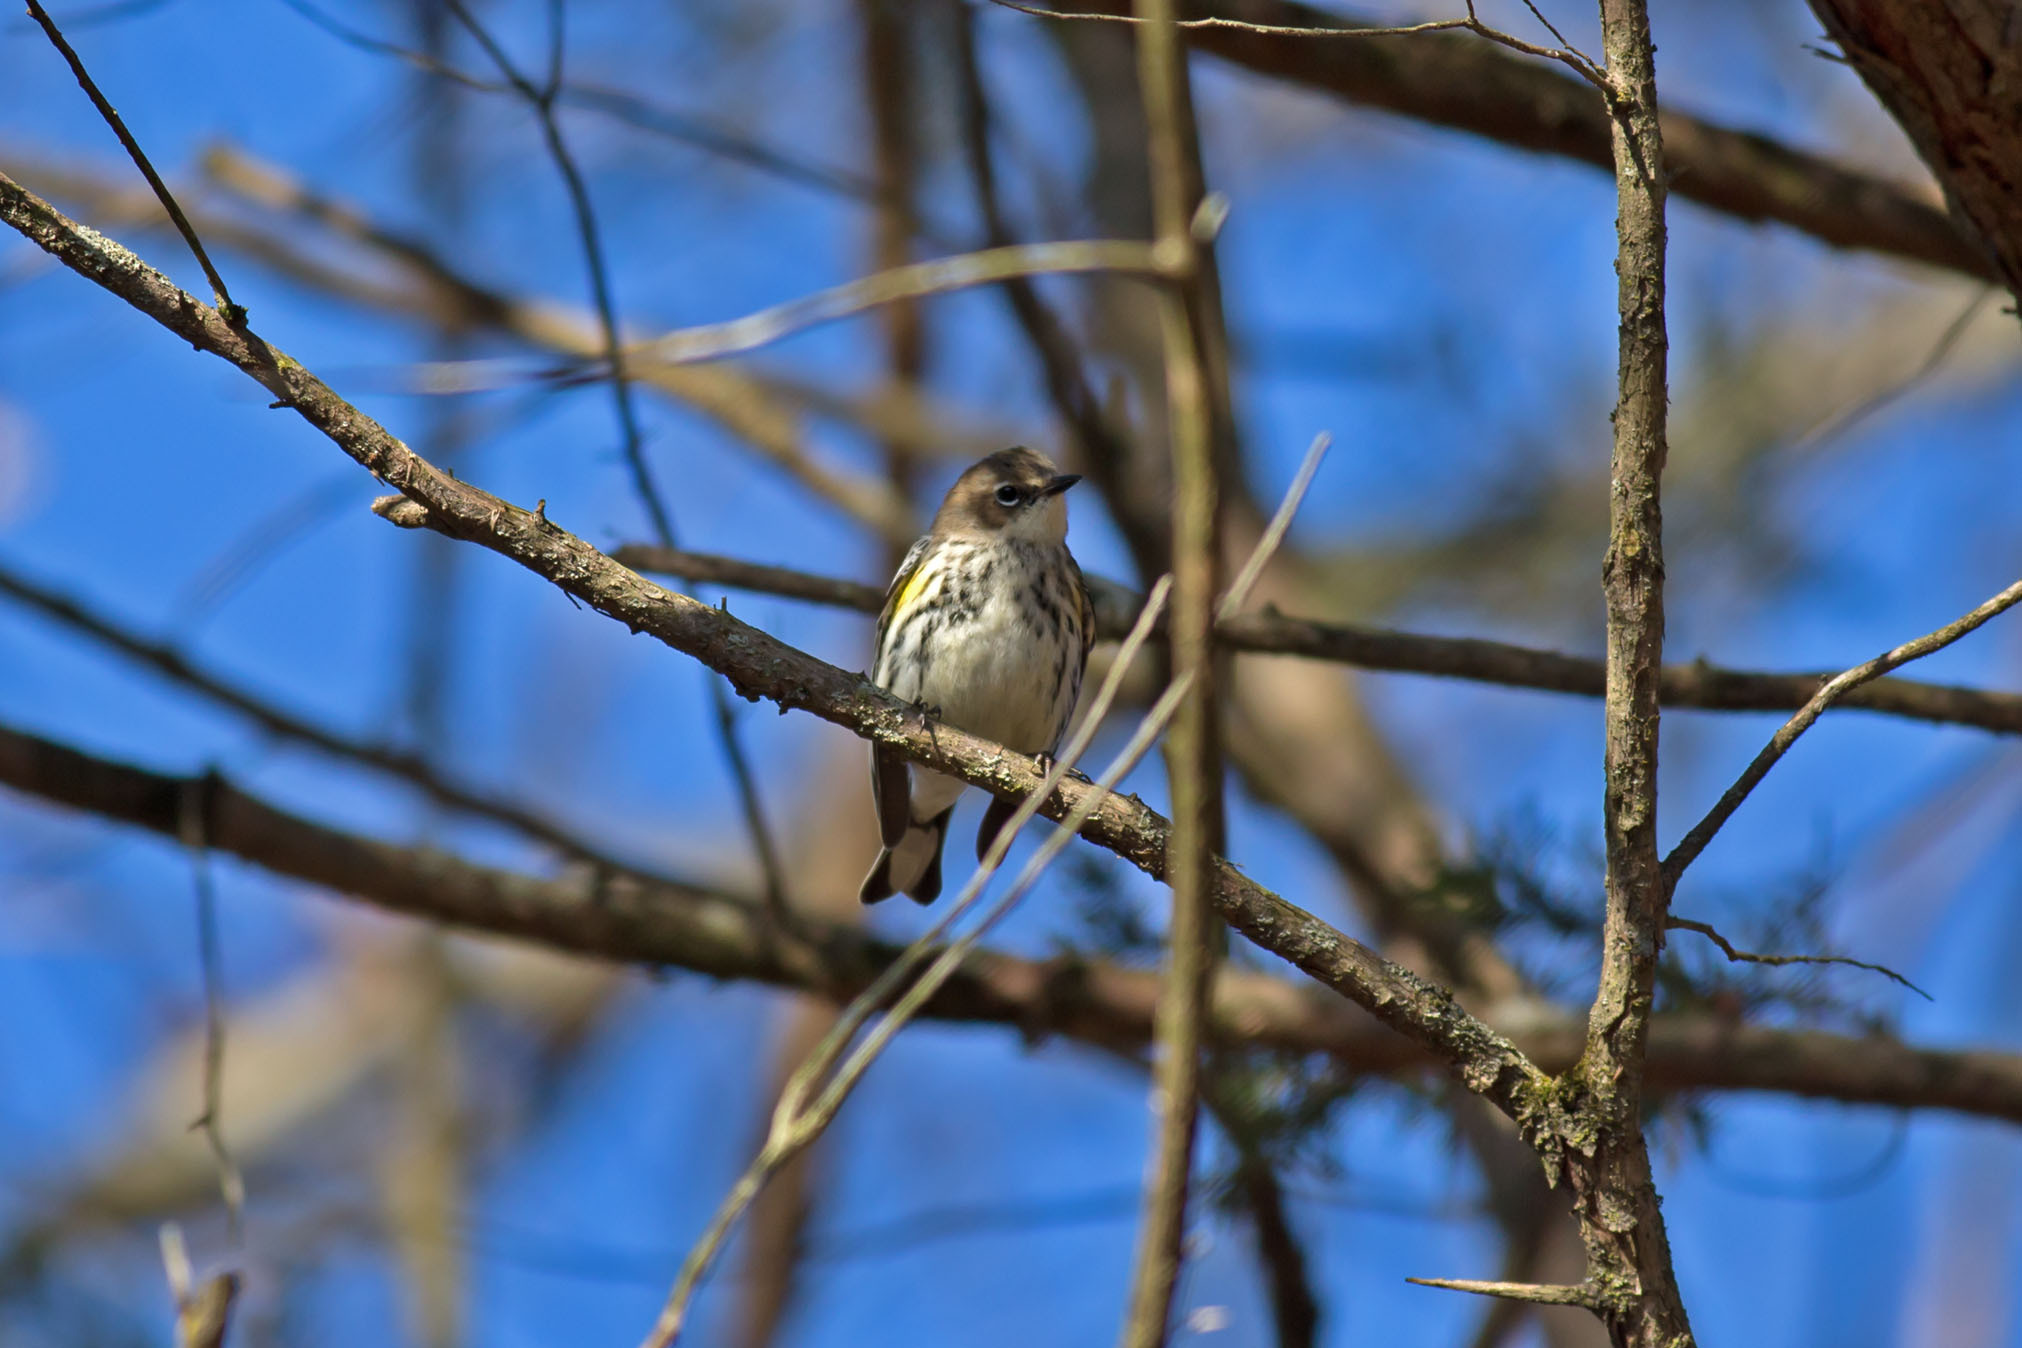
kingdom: Animalia
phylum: Chordata
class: Aves
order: Passeriformes
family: Parulidae
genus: Setophaga
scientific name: Setophaga coronata
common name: Myrtle warbler
